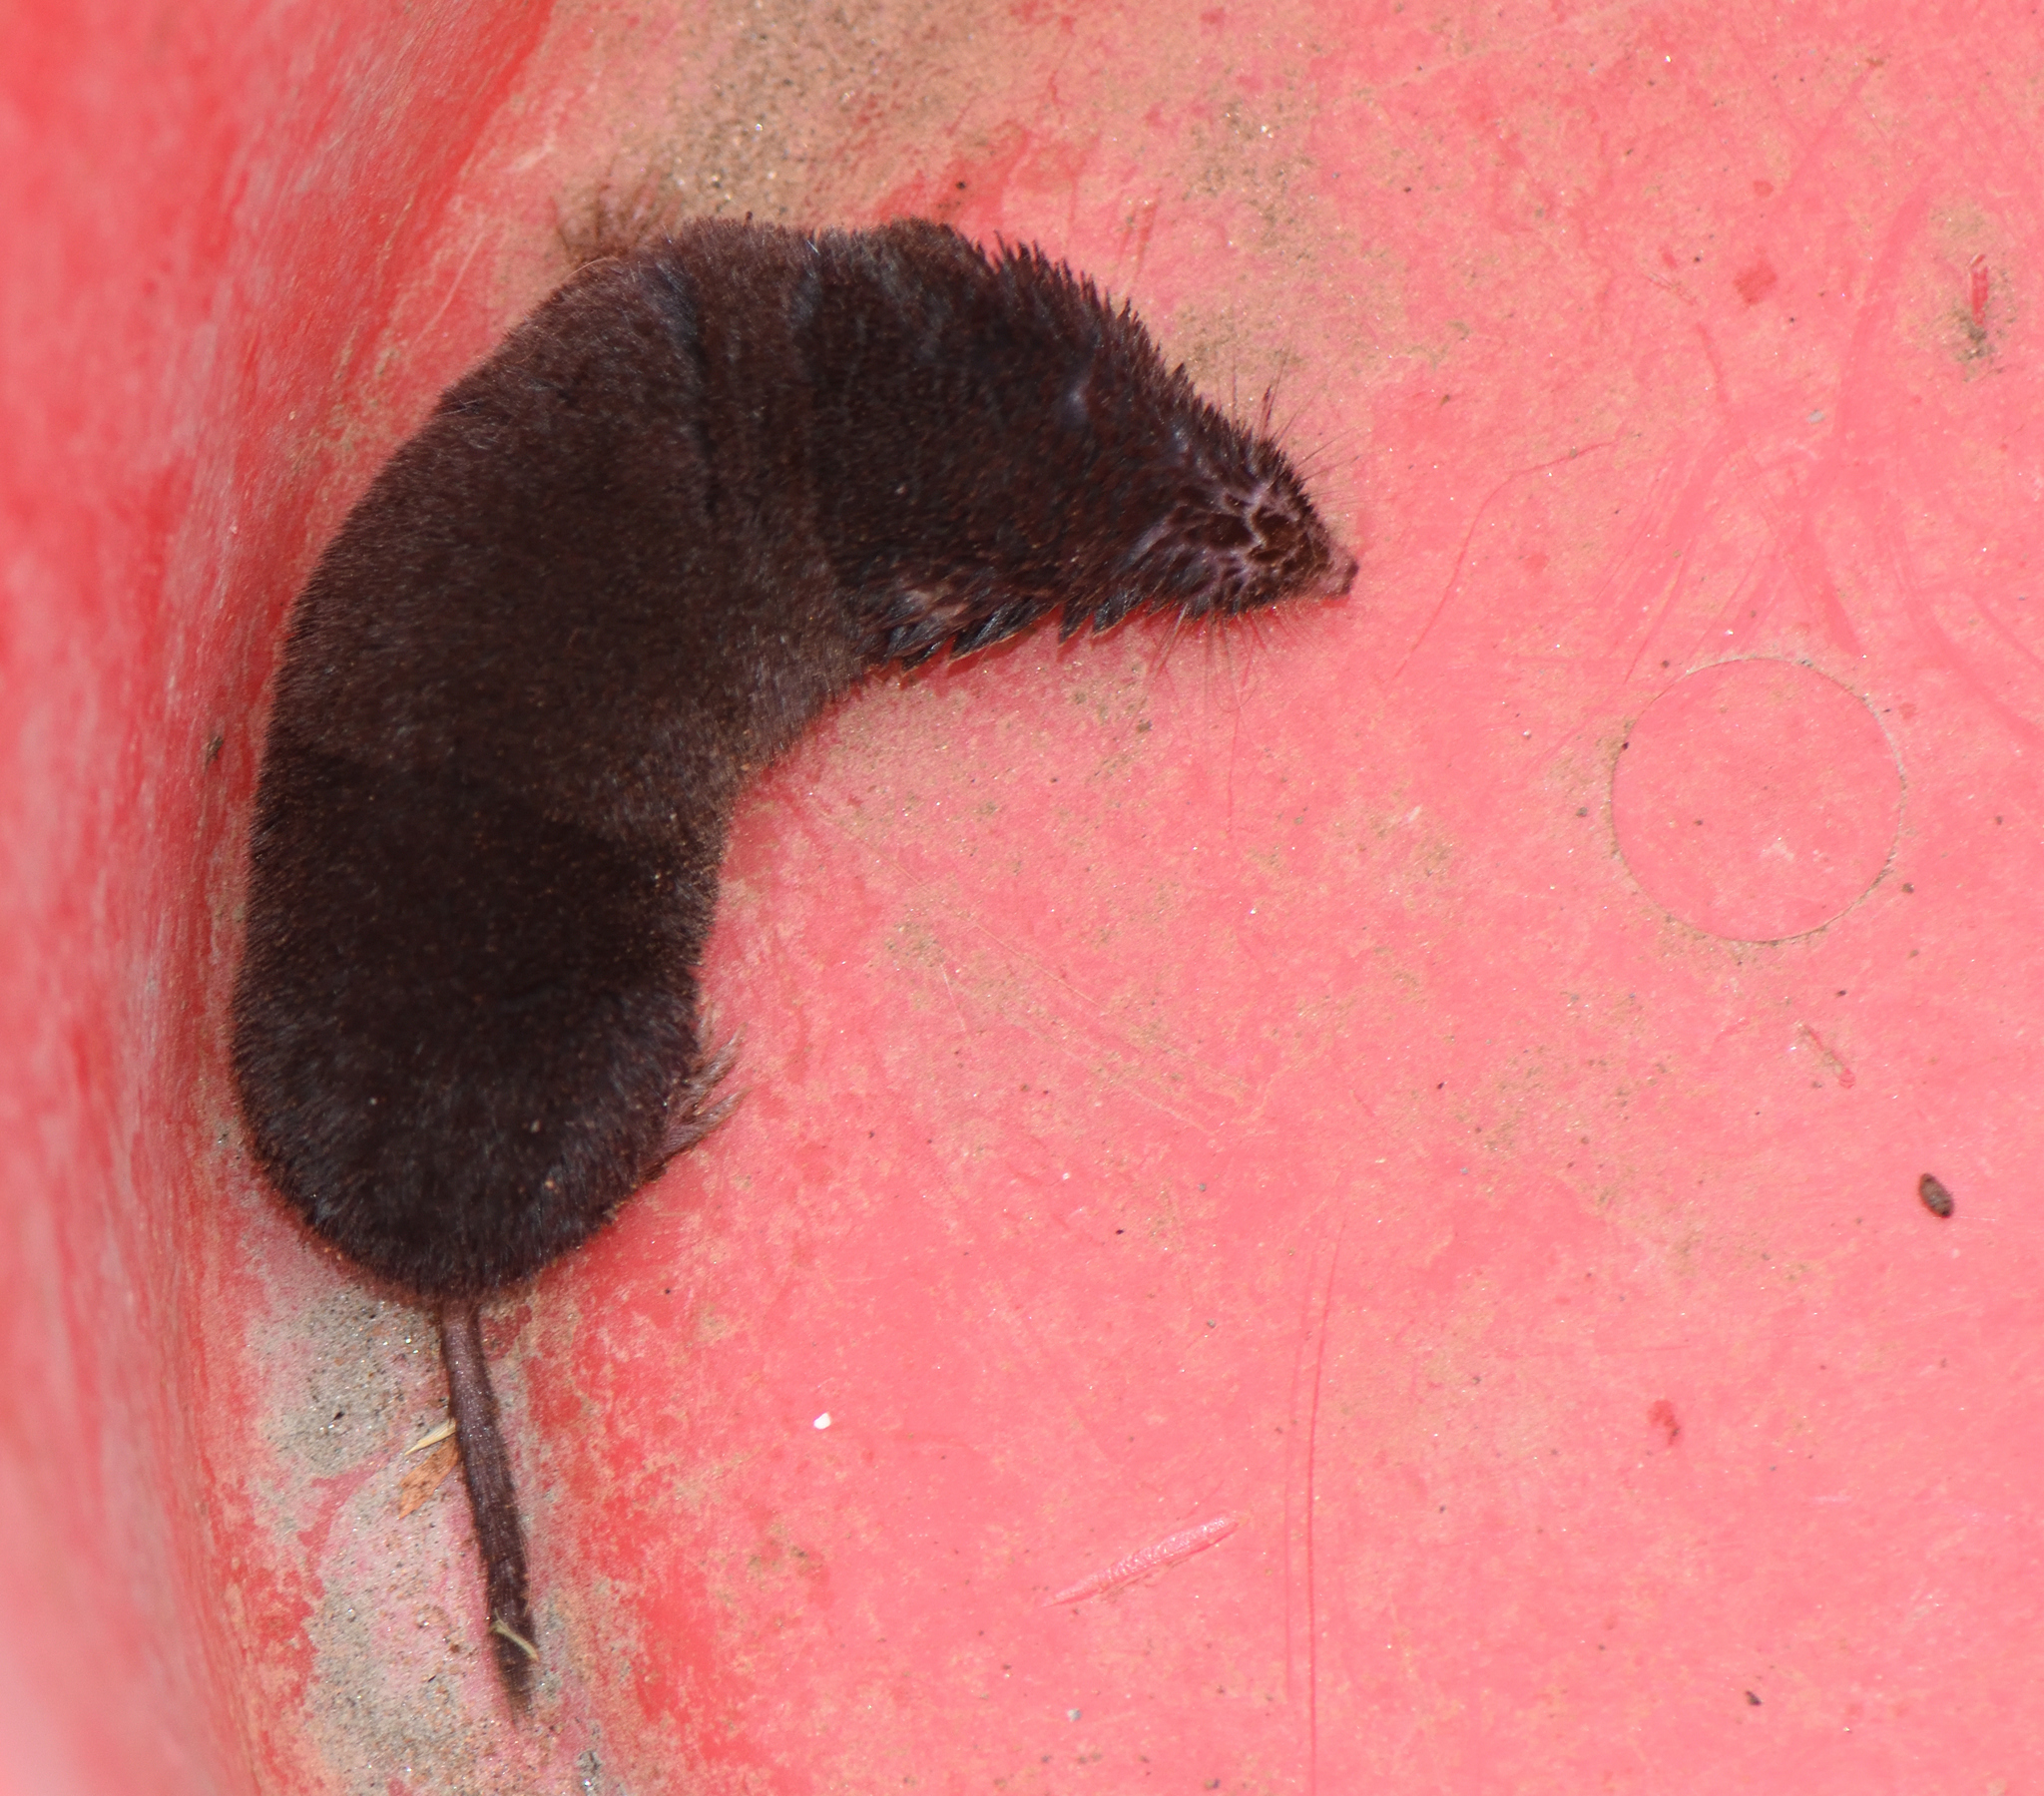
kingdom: Animalia
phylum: Chordata
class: Mammalia
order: Soricomorpha
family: Soricidae
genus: Blarina
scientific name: Blarina brevicauda
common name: Northern short-tailed shrew
